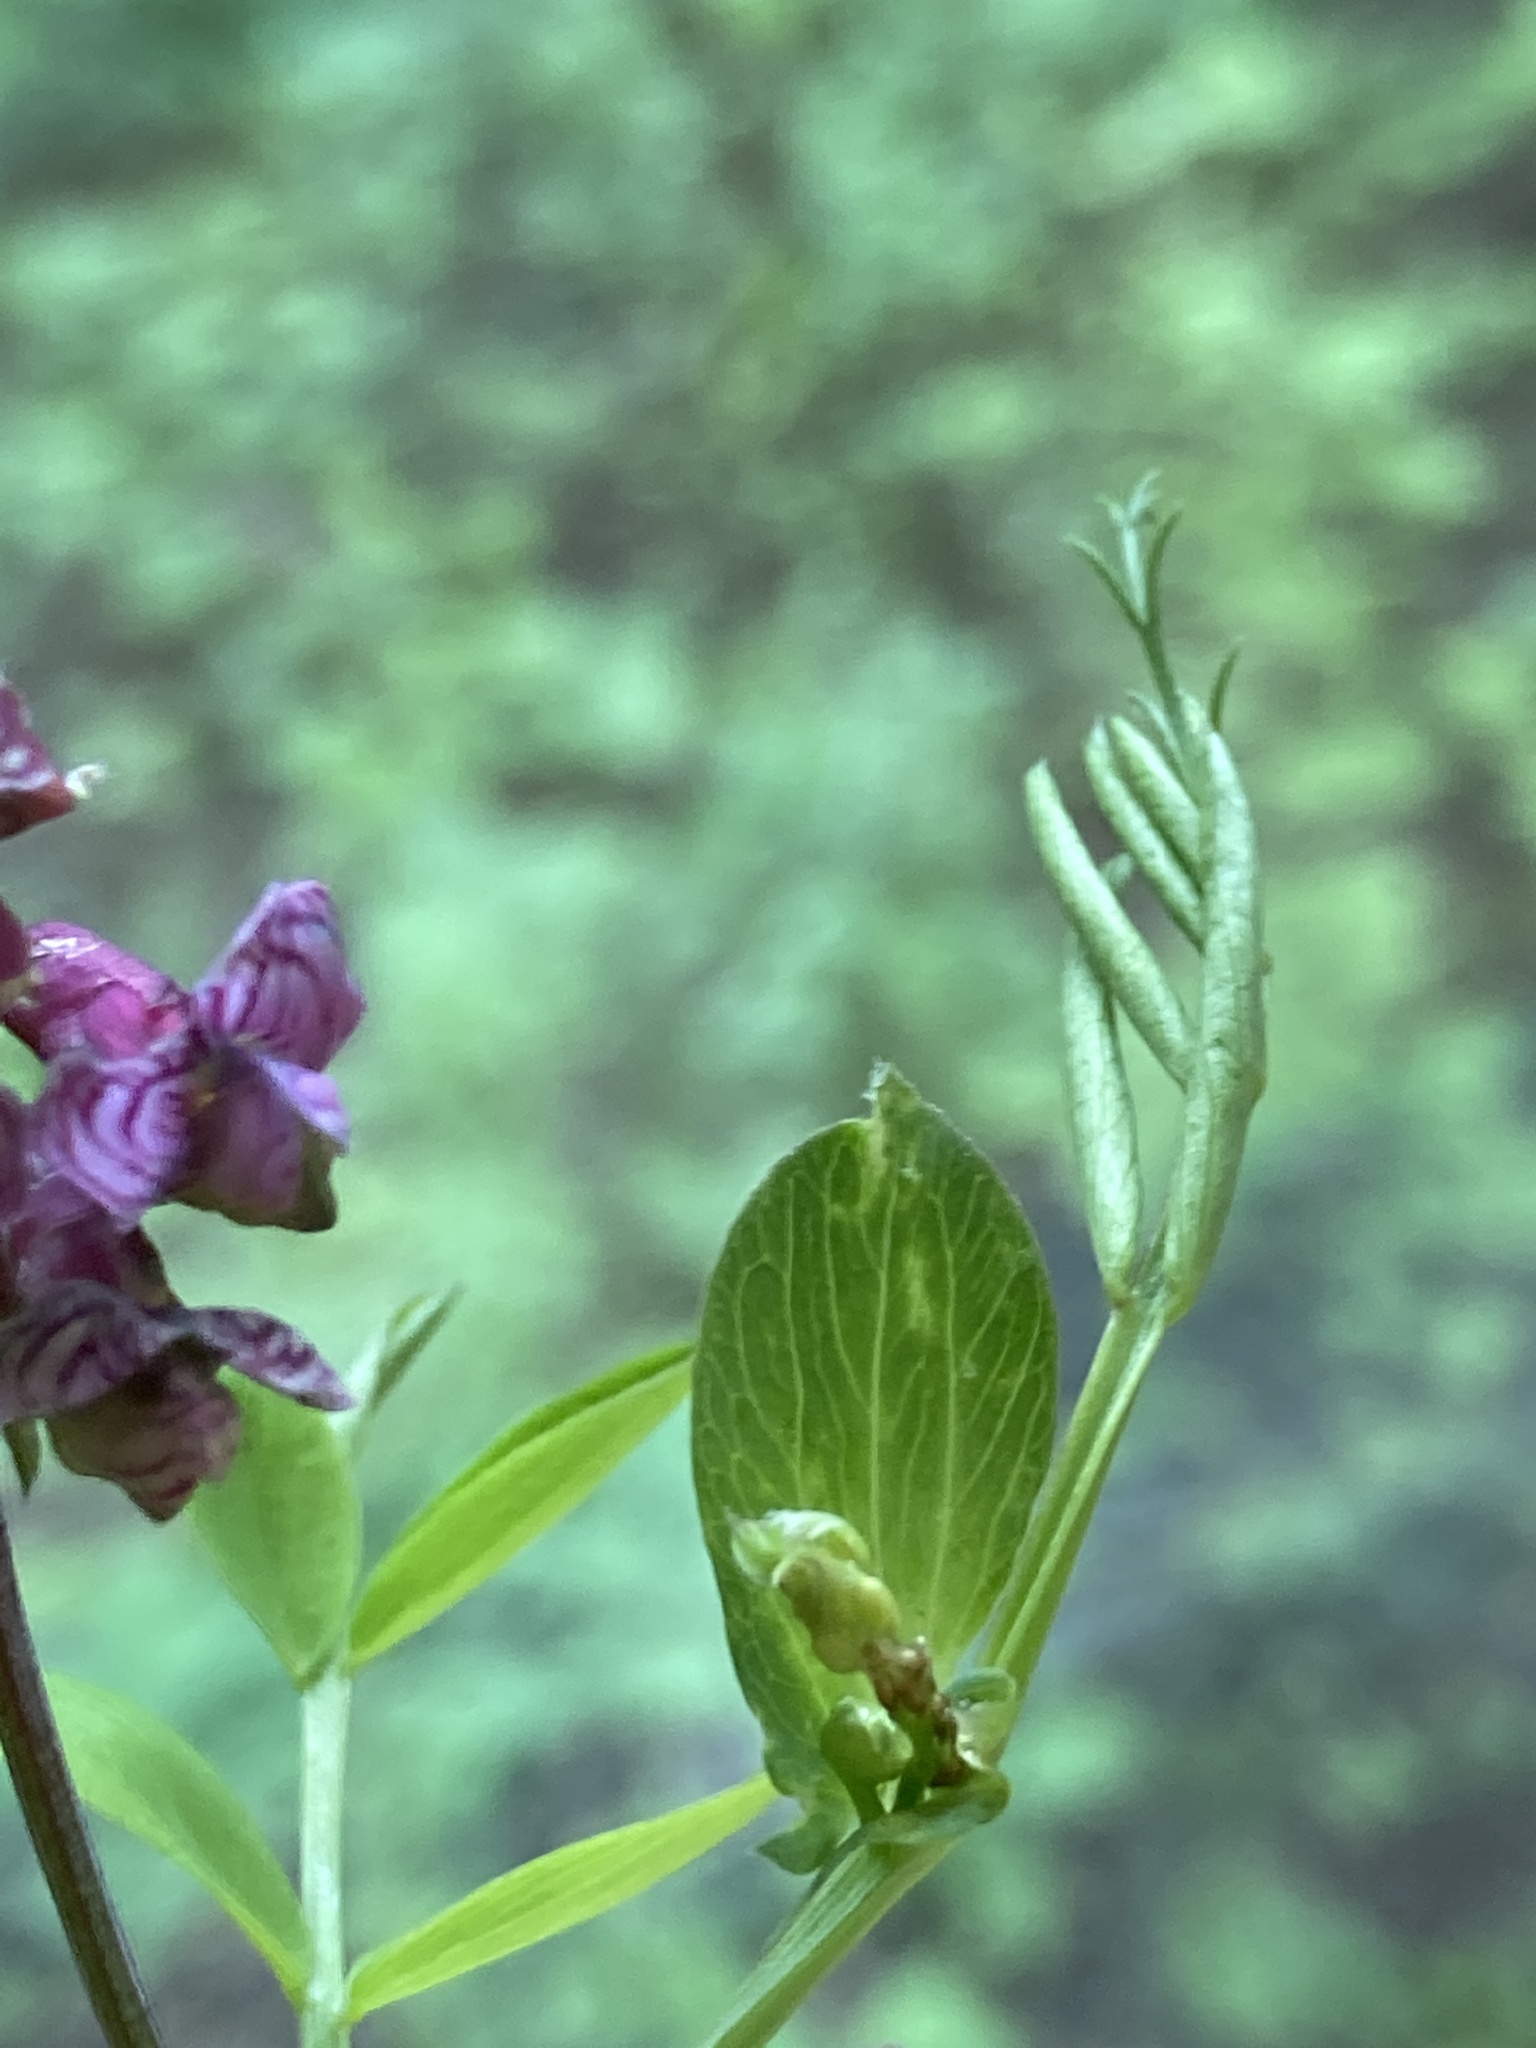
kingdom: Plantae
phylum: Tracheophyta
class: Magnoliopsida
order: Fabales
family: Fabaceae
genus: Lathyrus
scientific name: Lathyrus pisiformis
